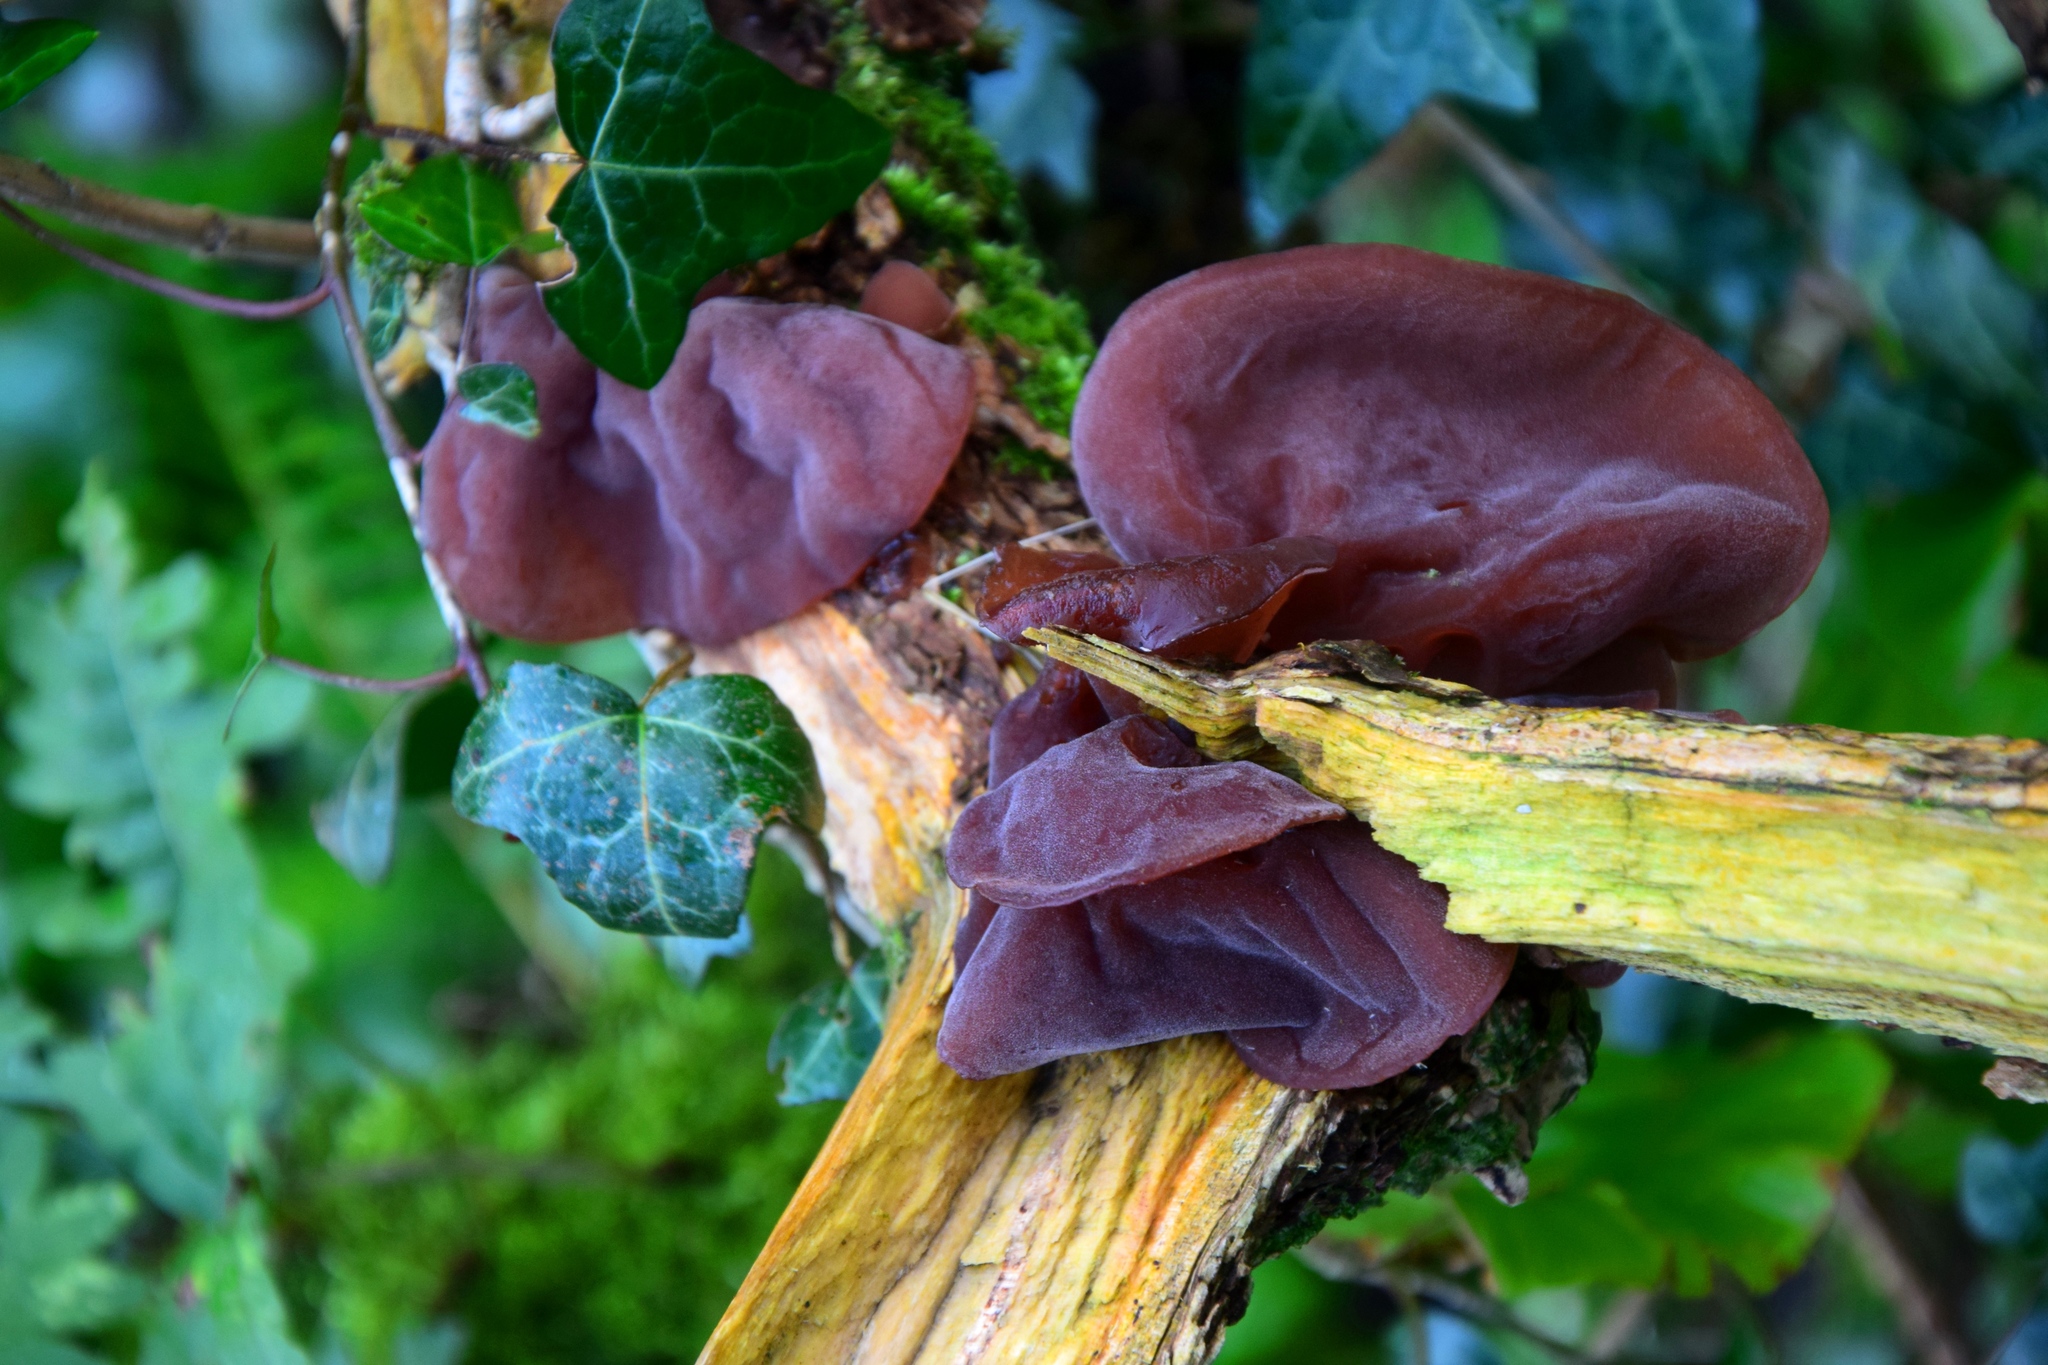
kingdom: Fungi
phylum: Basidiomycota
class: Agaricomycetes
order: Auriculariales
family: Auriculariaceae
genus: Auricularia
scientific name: Auricularia auricula-judae
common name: Jelly ear
